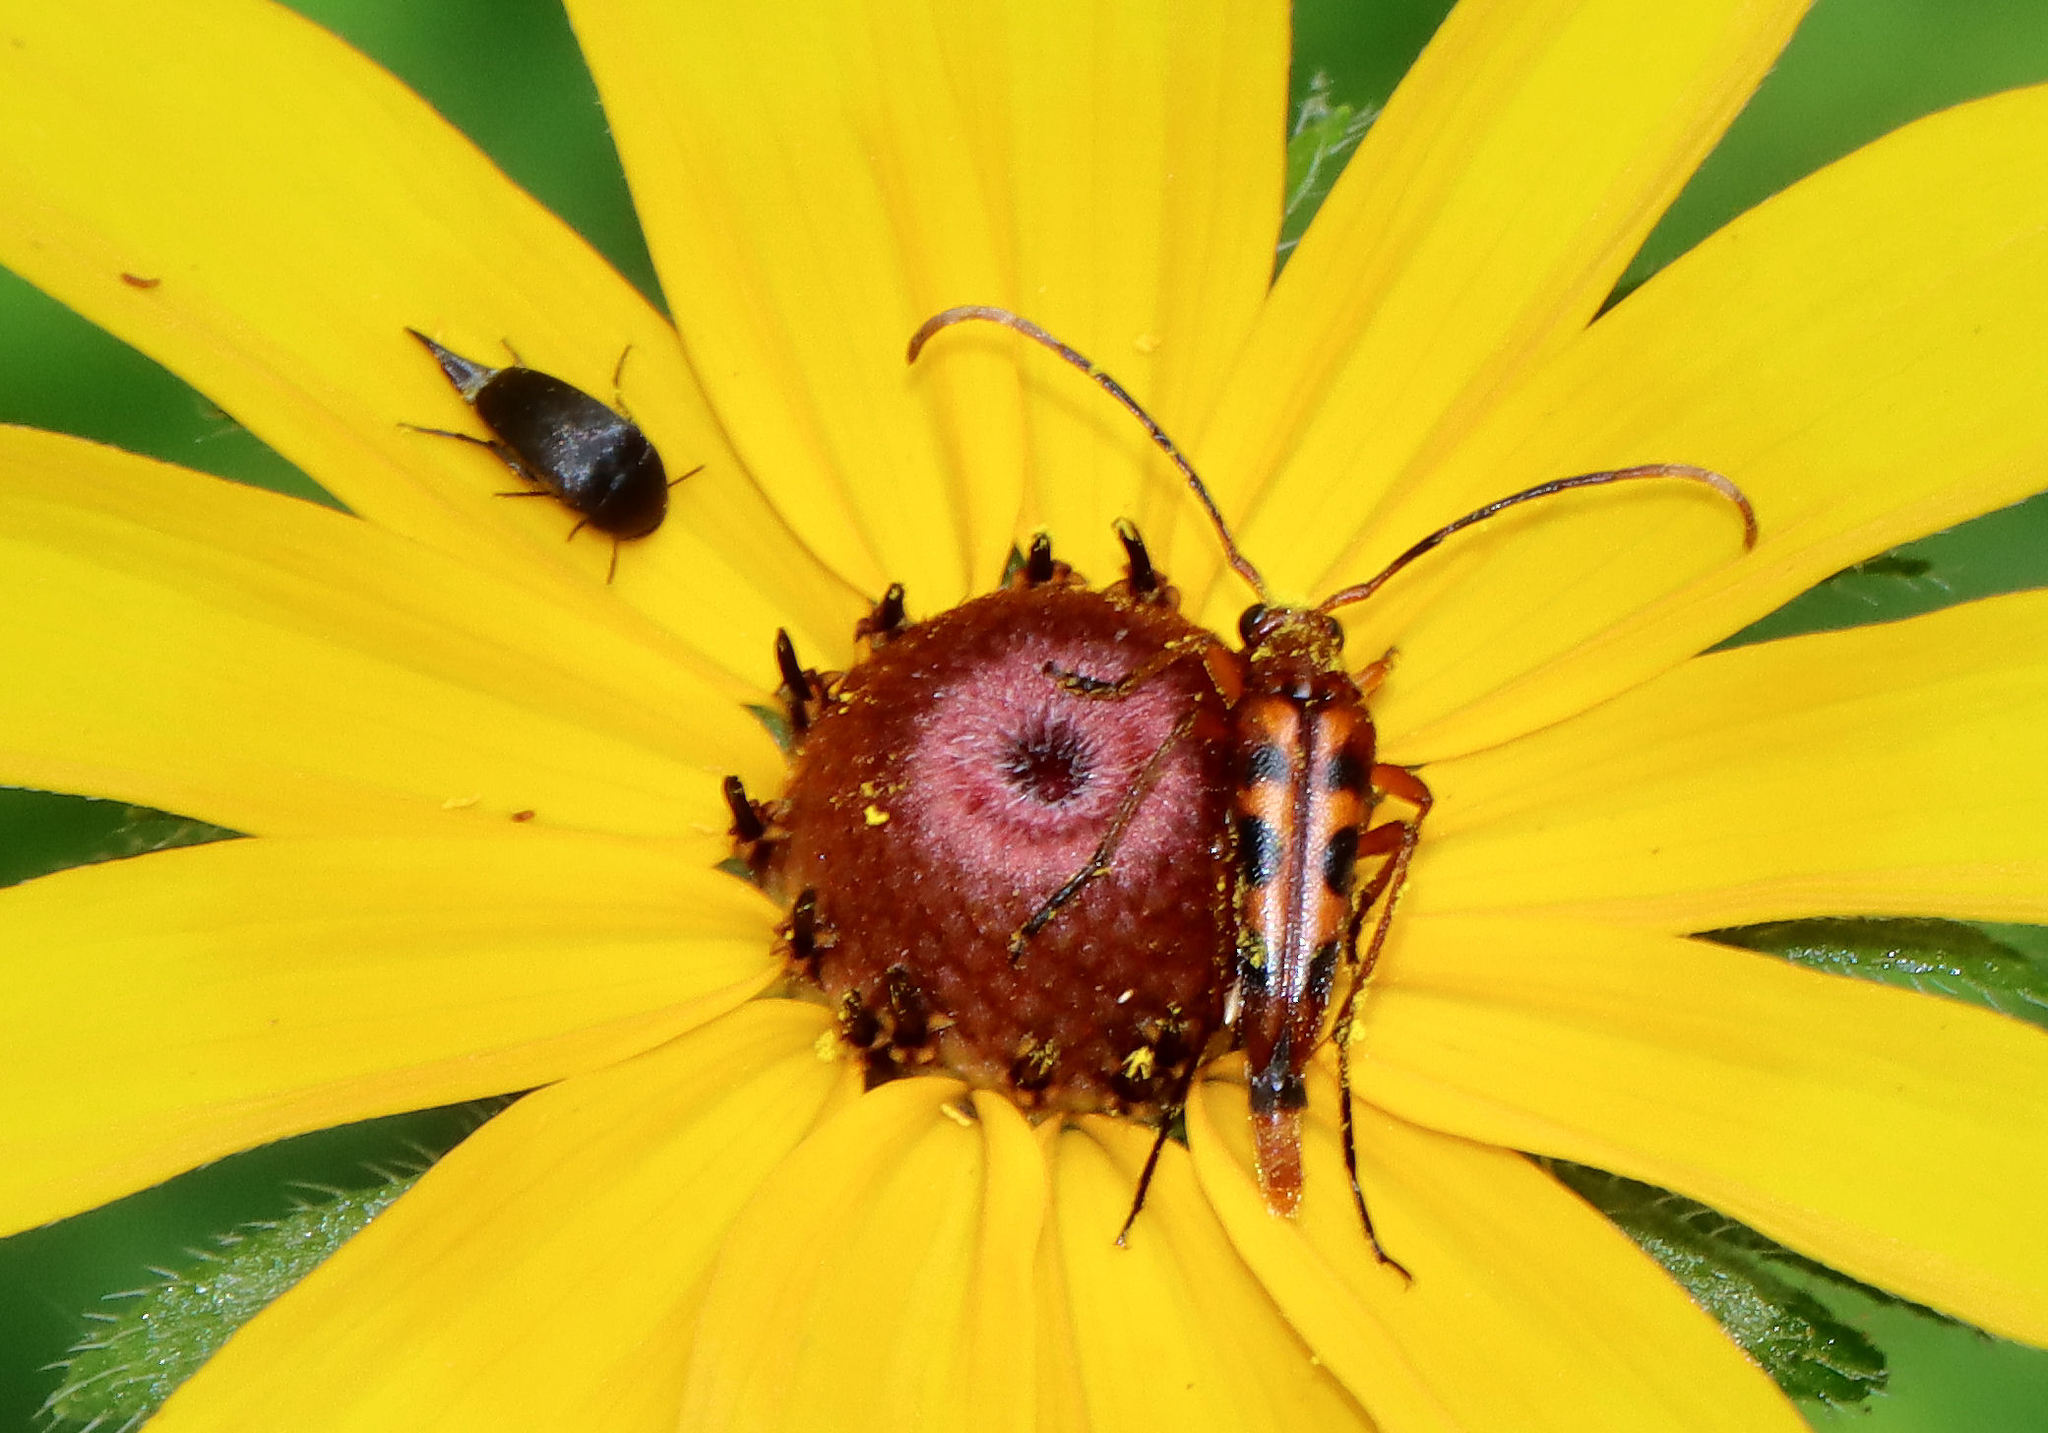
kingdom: Animalia
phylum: Arthropoda
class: Insecta
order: Coleoptera
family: Cerambycidae
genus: Strangalia
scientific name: Strangalia sexnotata
